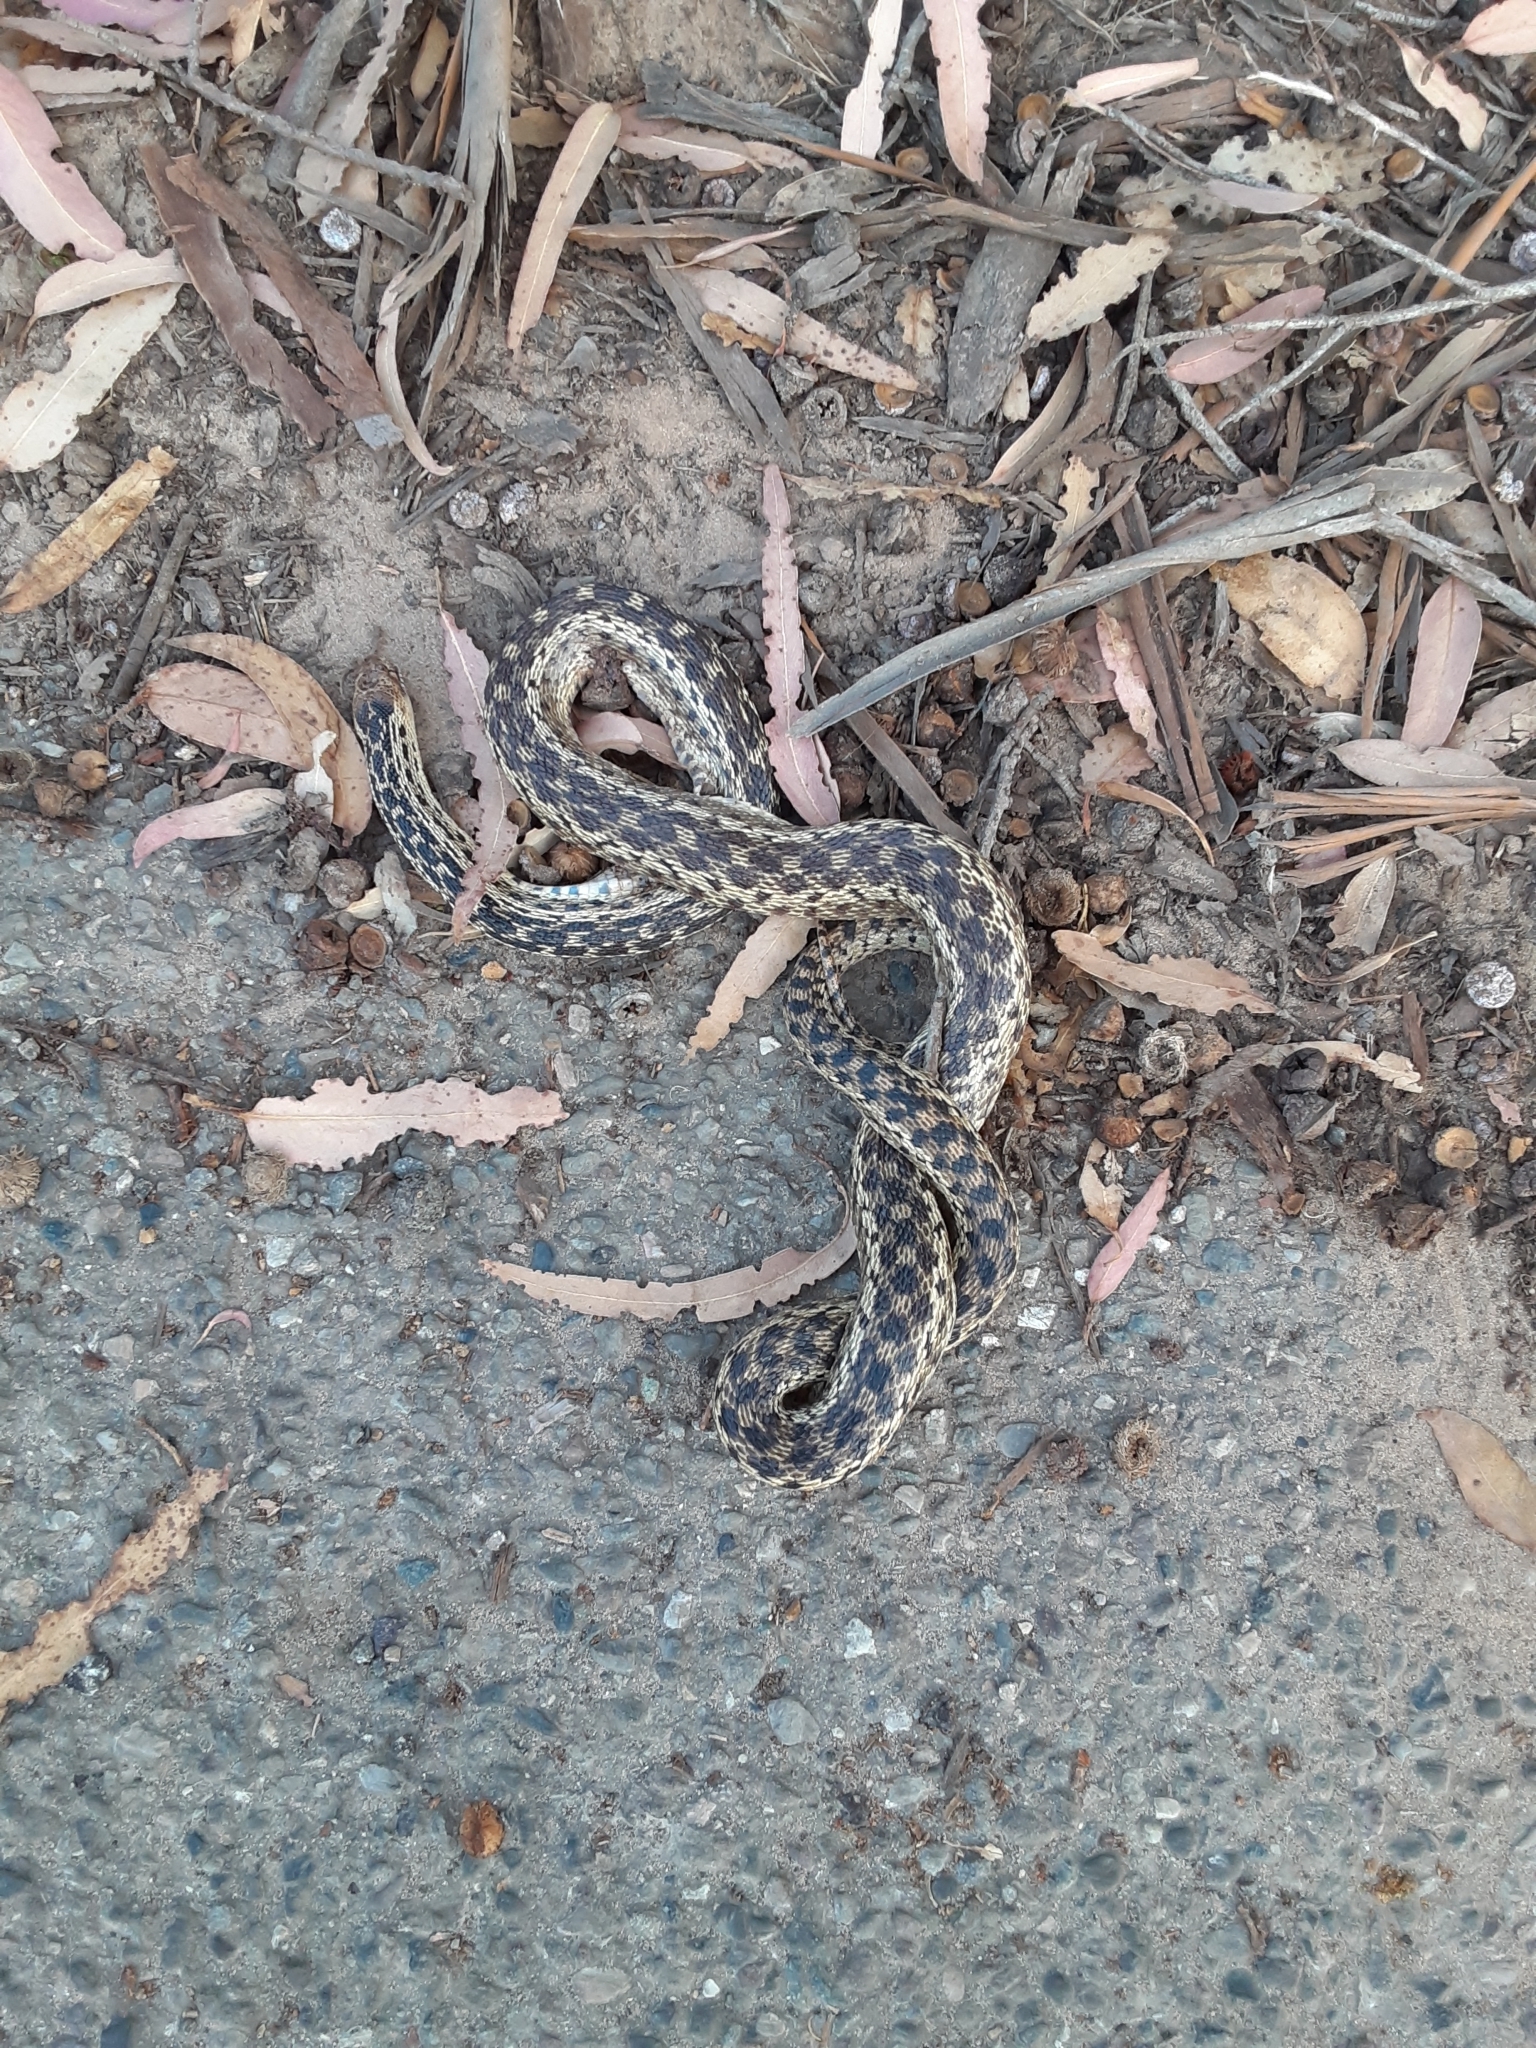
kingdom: Animalia
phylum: Chordata
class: Squamata
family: Colubridae
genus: Pituophis
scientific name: Pituophis catenifer
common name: Gopher snake
